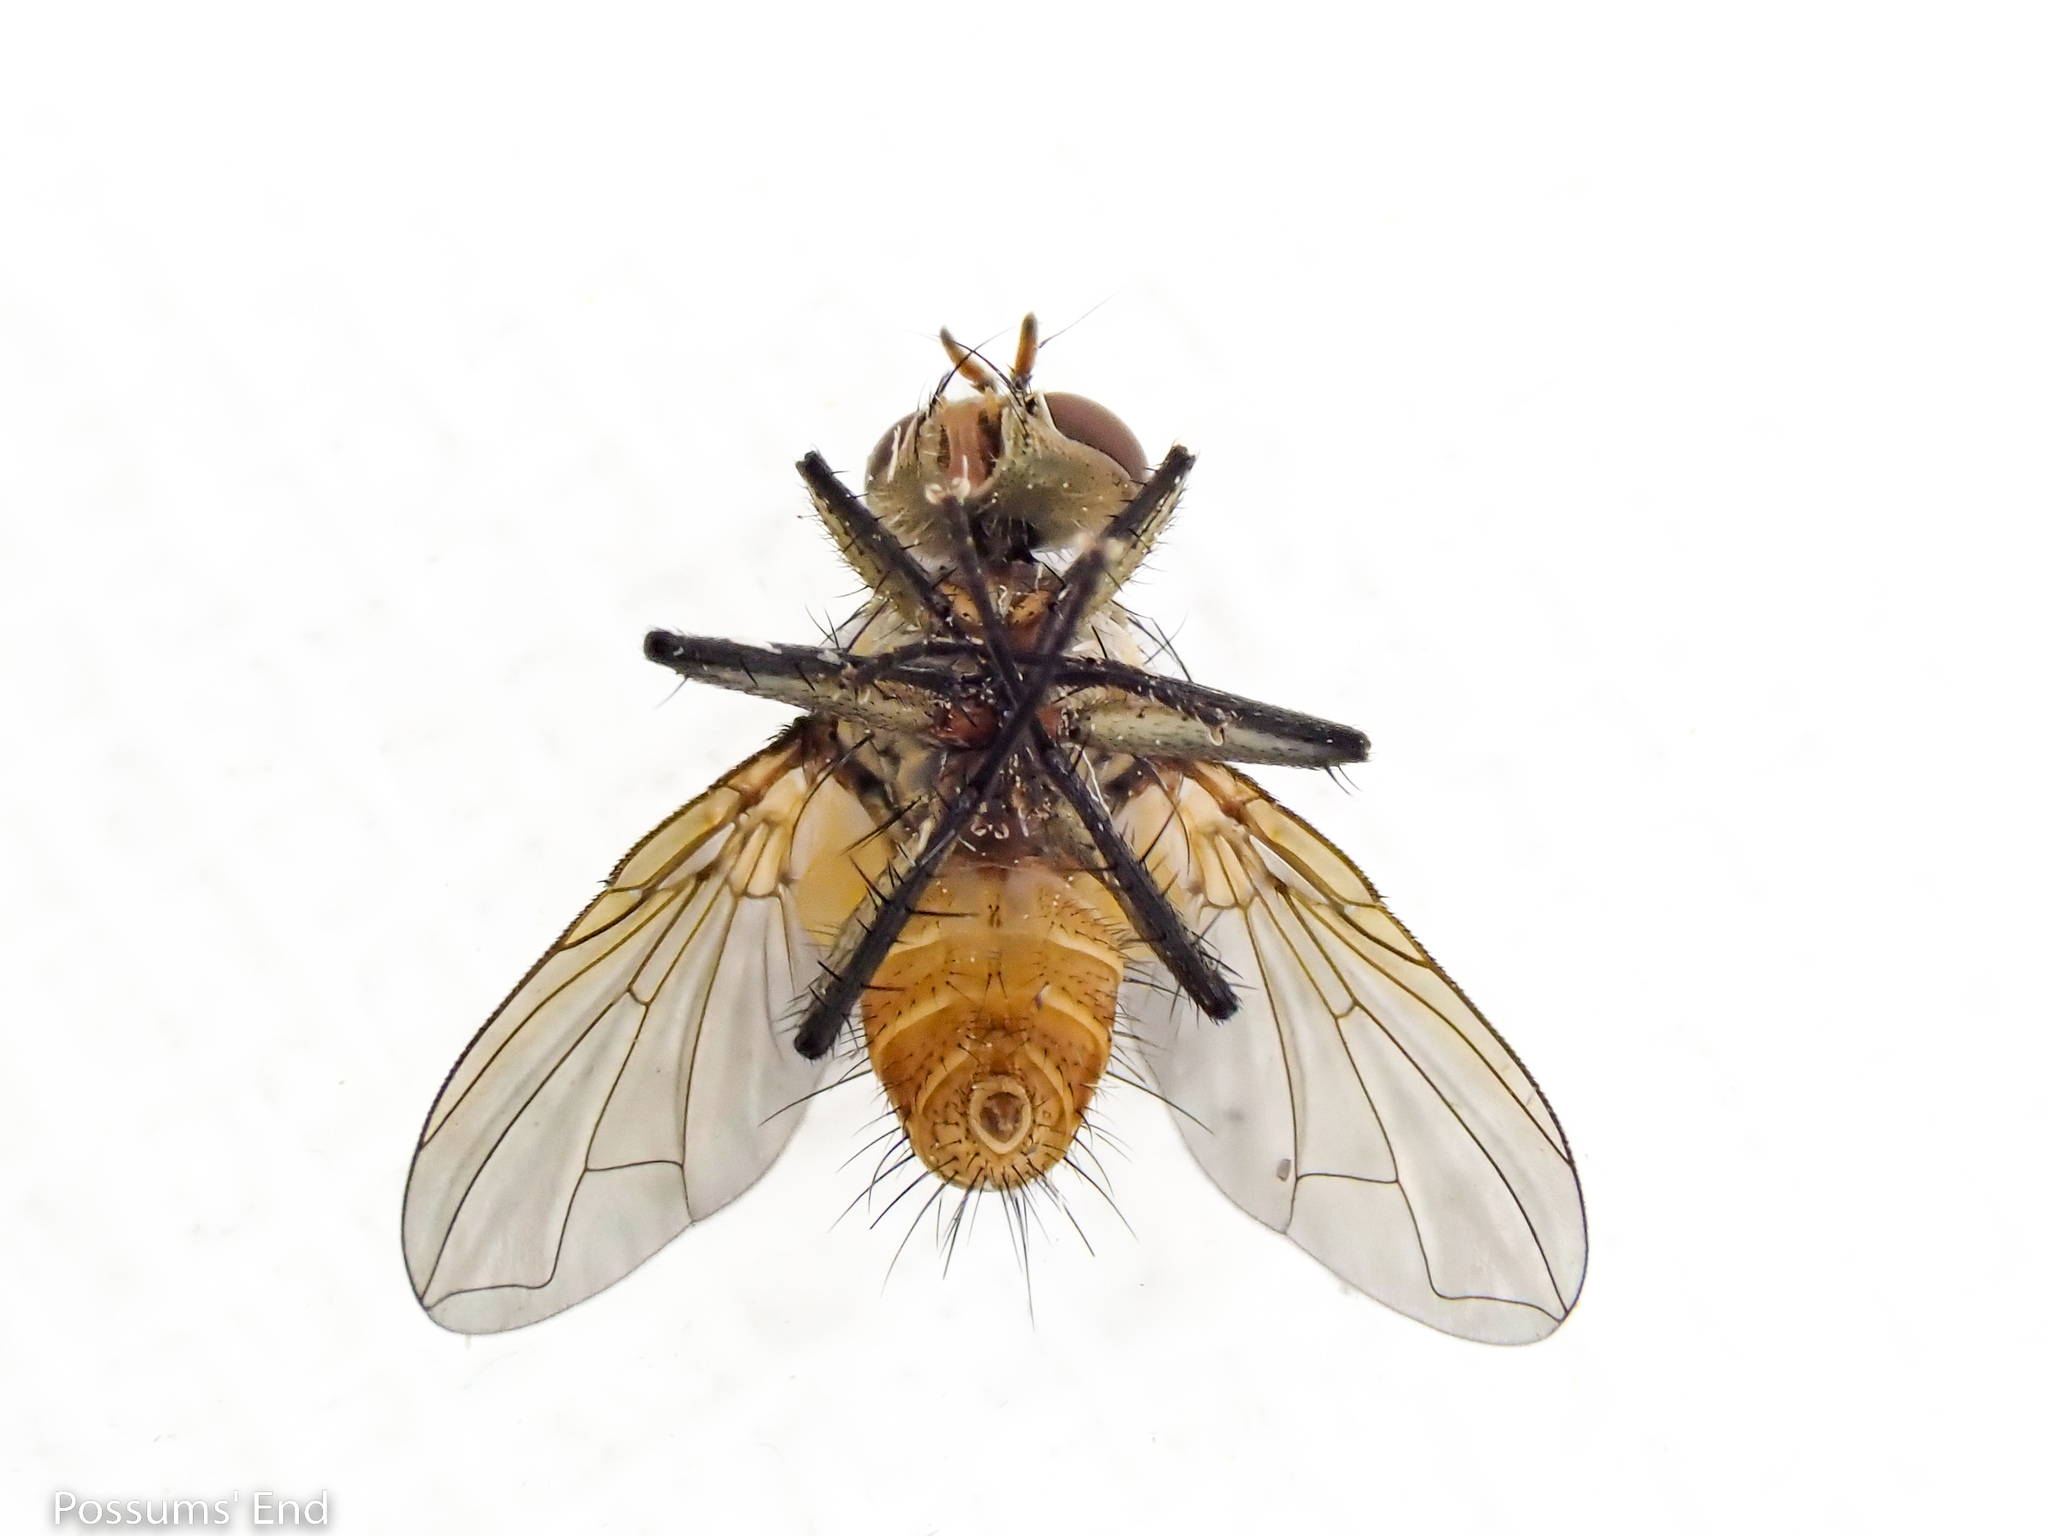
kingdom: Animalia
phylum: Arthropoda
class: Insecta
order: Diptera
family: Tachinidae
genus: Trigonospila
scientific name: Trigonospila brevifacies
